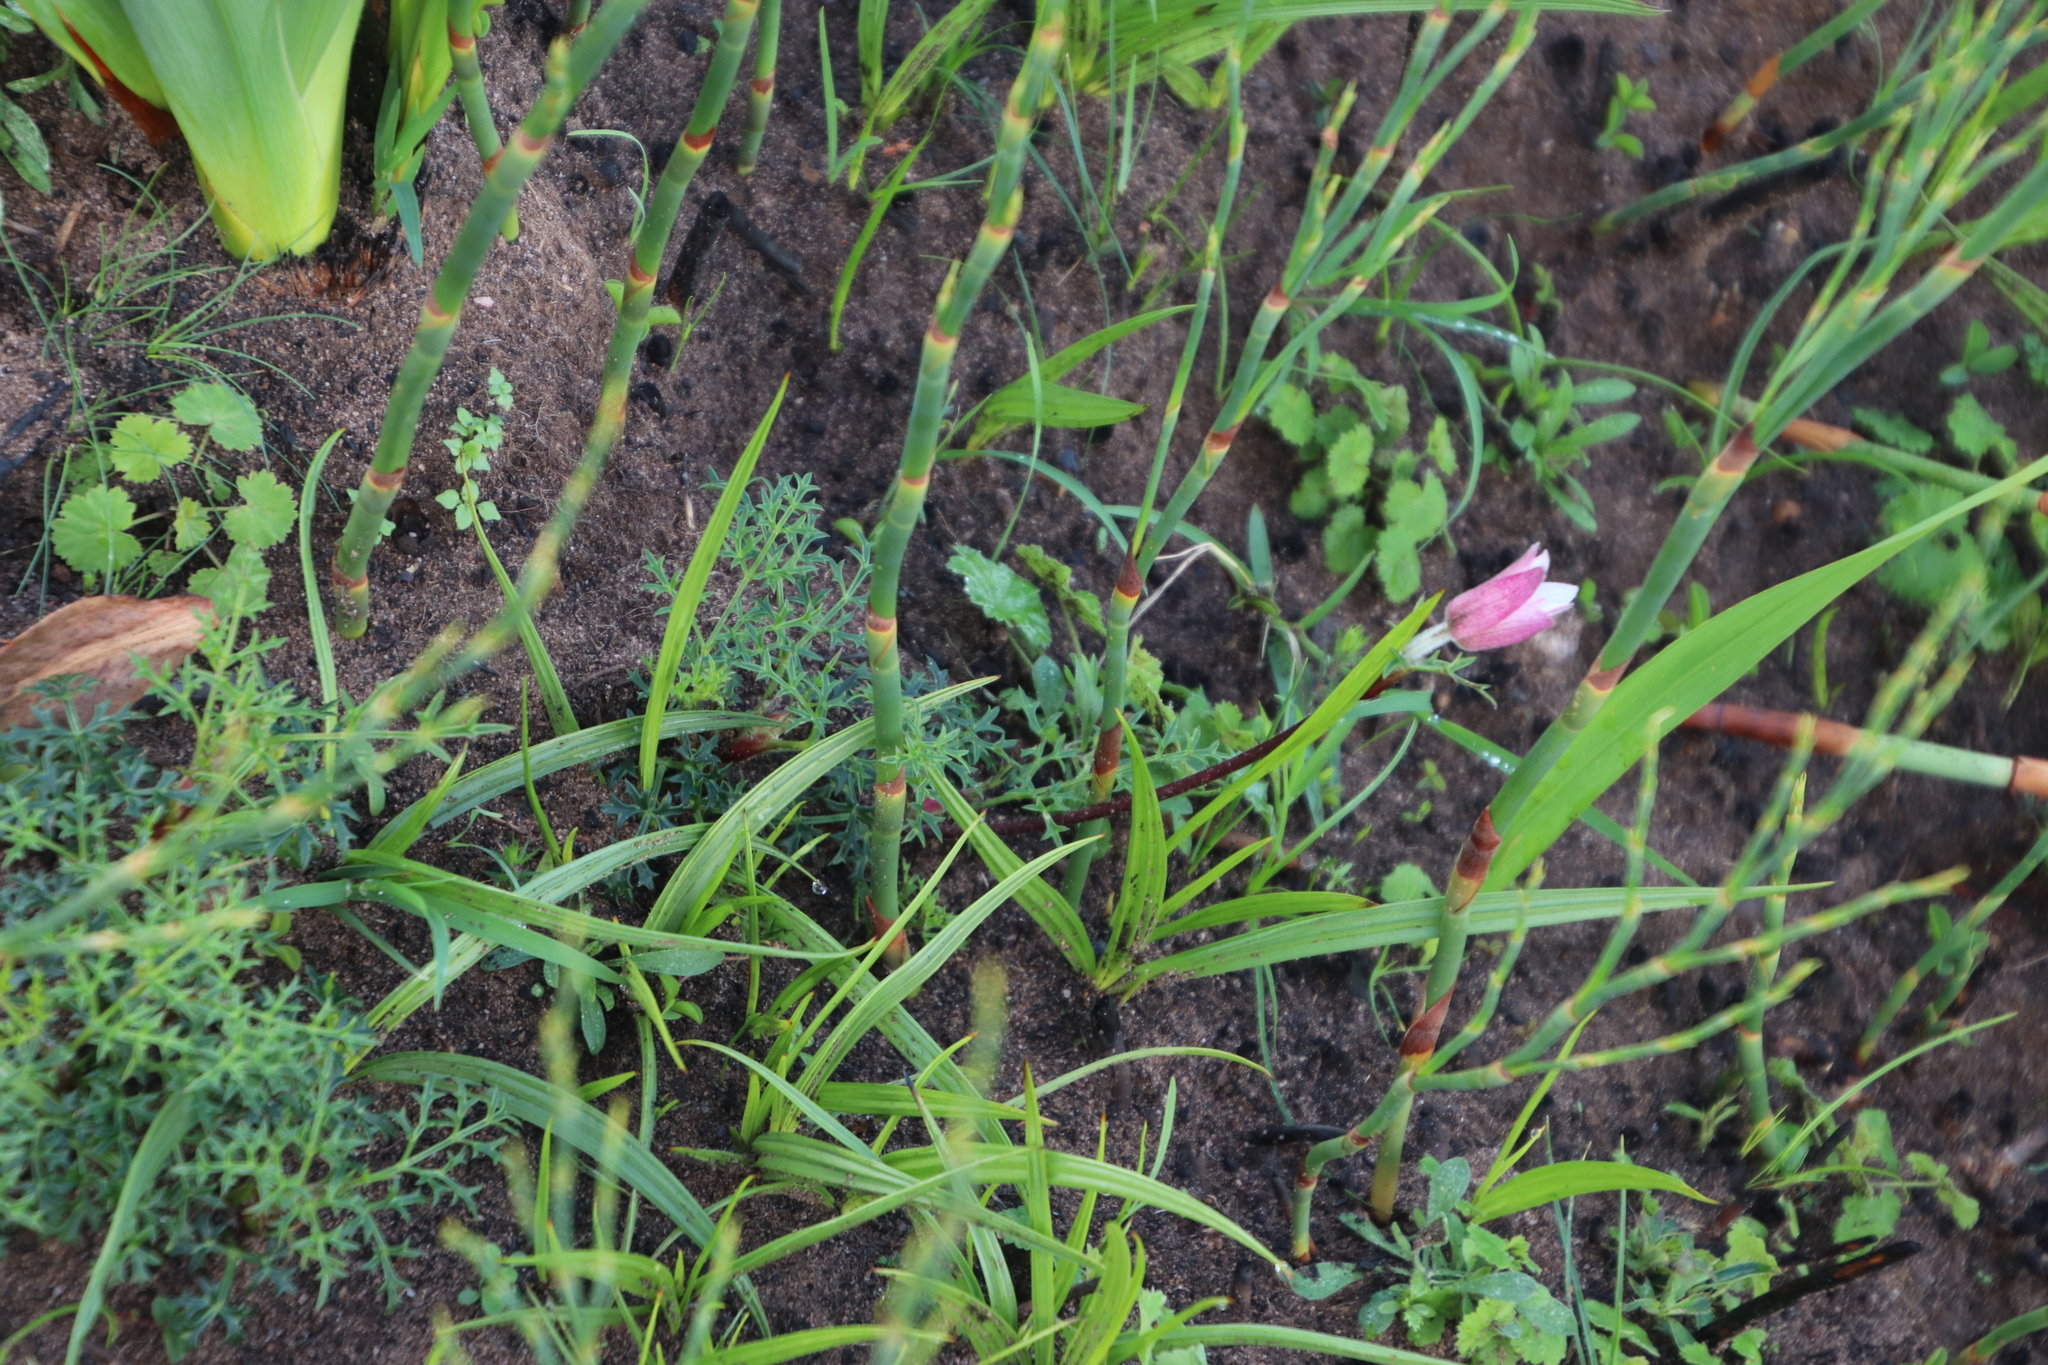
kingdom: Plantae
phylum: Tracheophyta
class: Magnoliopsida
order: Ranunculales
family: Ranunculaceae
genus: Knowltonia
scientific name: Knowltonia tenuifolia
